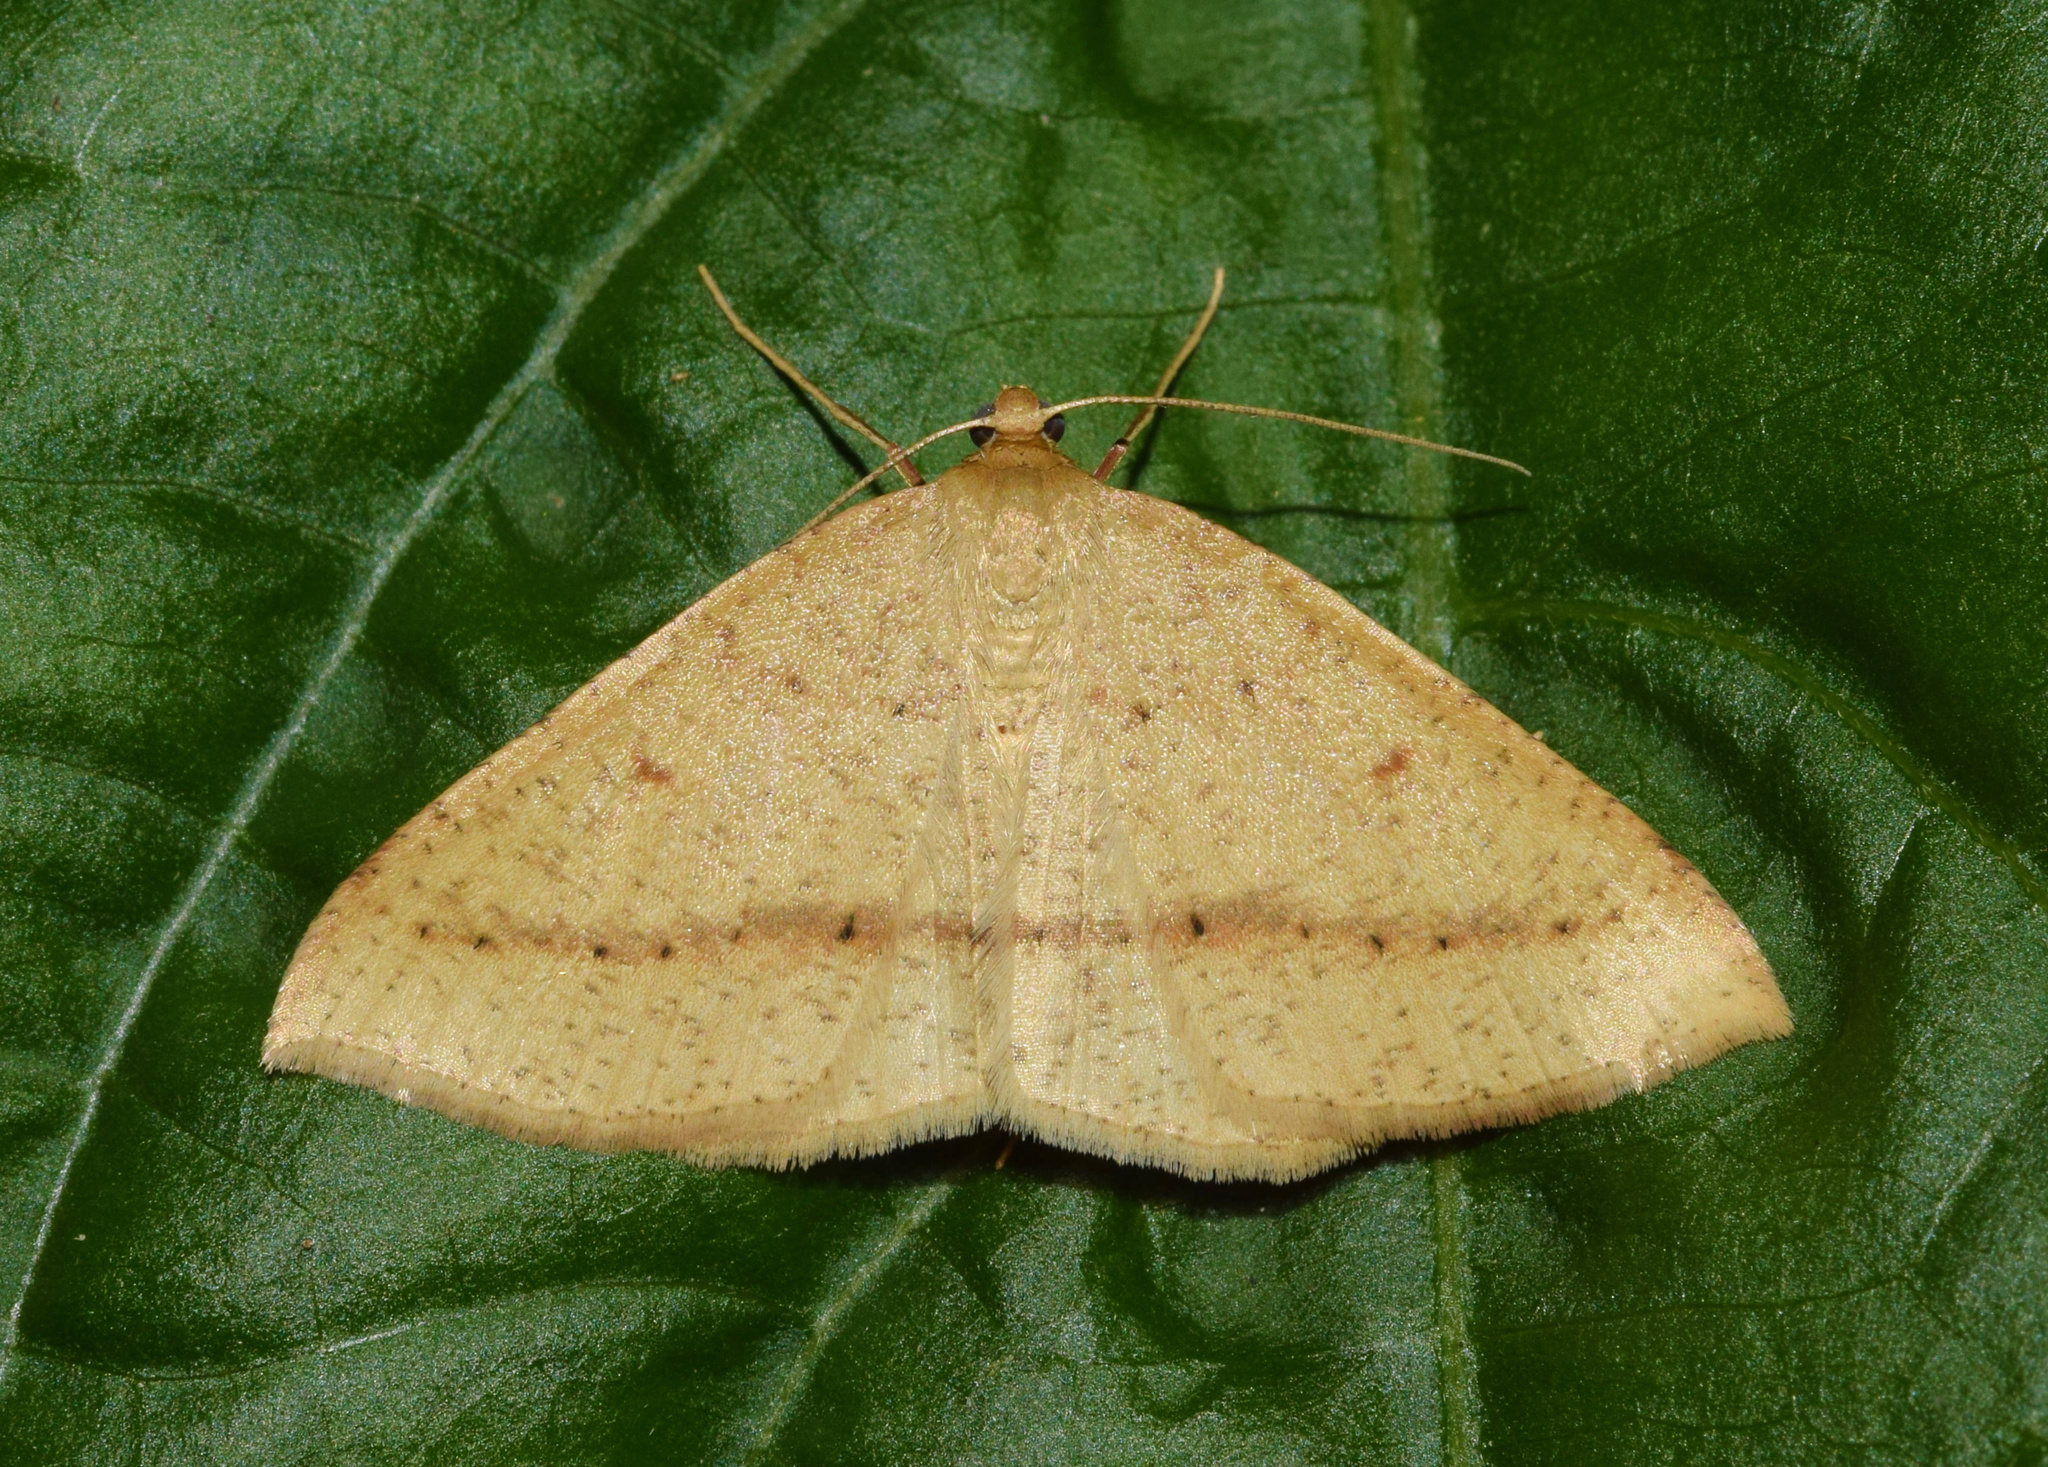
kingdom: Animalia
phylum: Arthropoda
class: Insecta
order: Lepidoptera
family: Geometridae
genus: Palaeaspilates
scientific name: Palaeaspilates inoffensa
